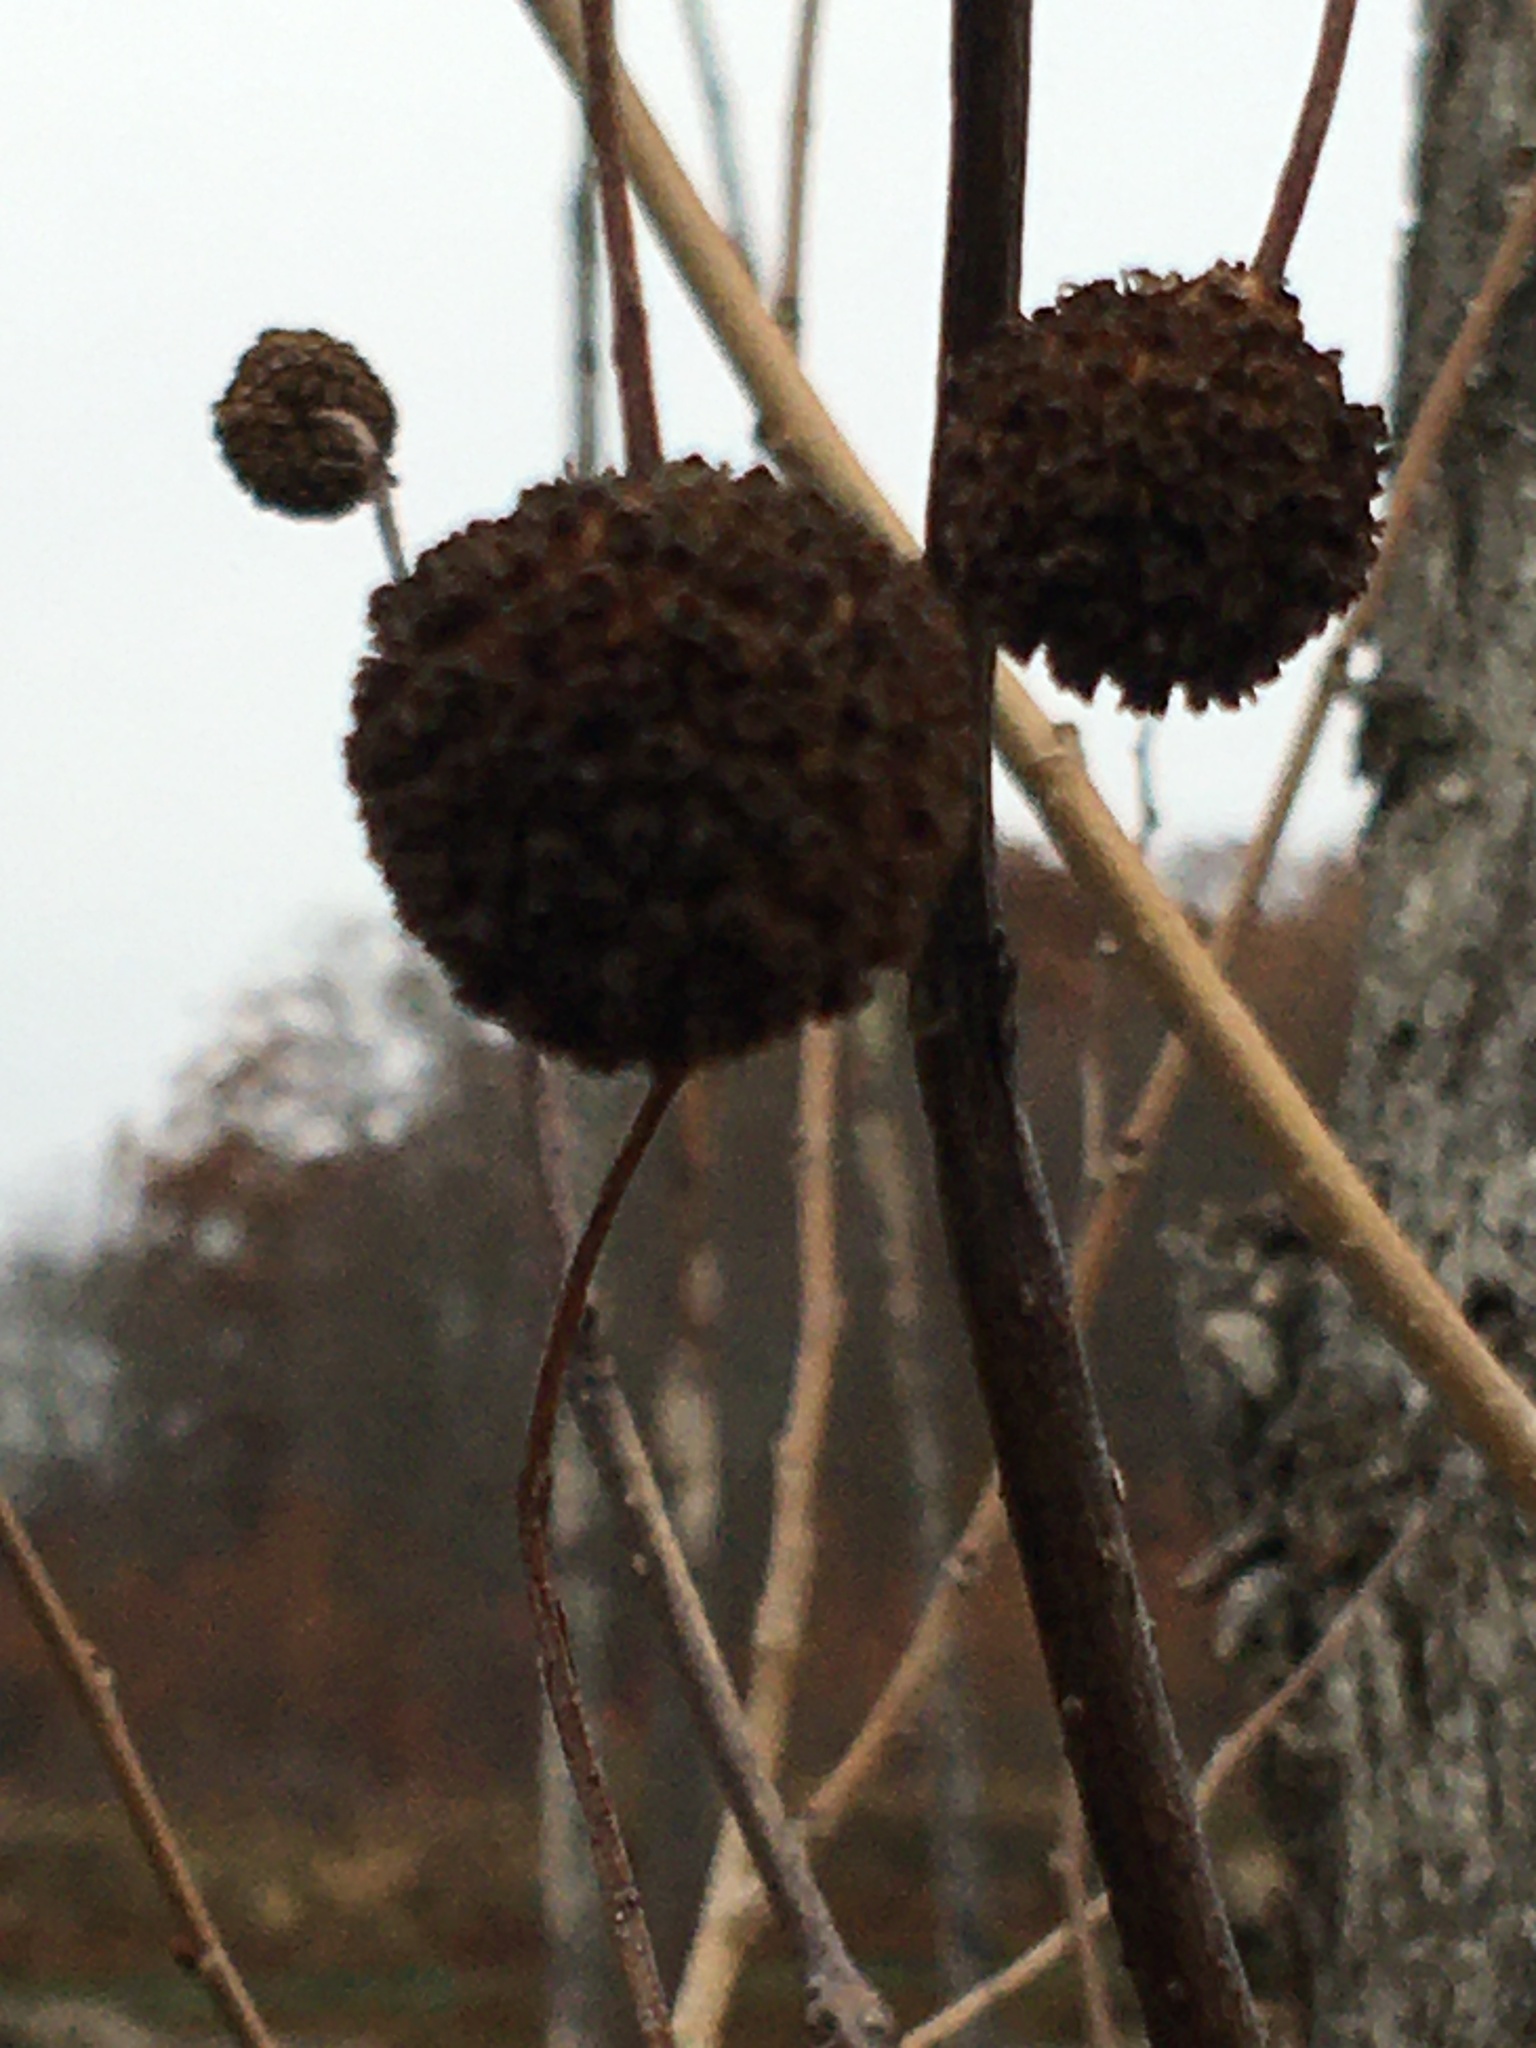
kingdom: Plantae
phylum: Tracheophyta
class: Magnoliopsida
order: Gentianales
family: Rubiaceae
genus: Cephalanthus
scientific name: Cephalanthus occidentalis
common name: Button-willow
